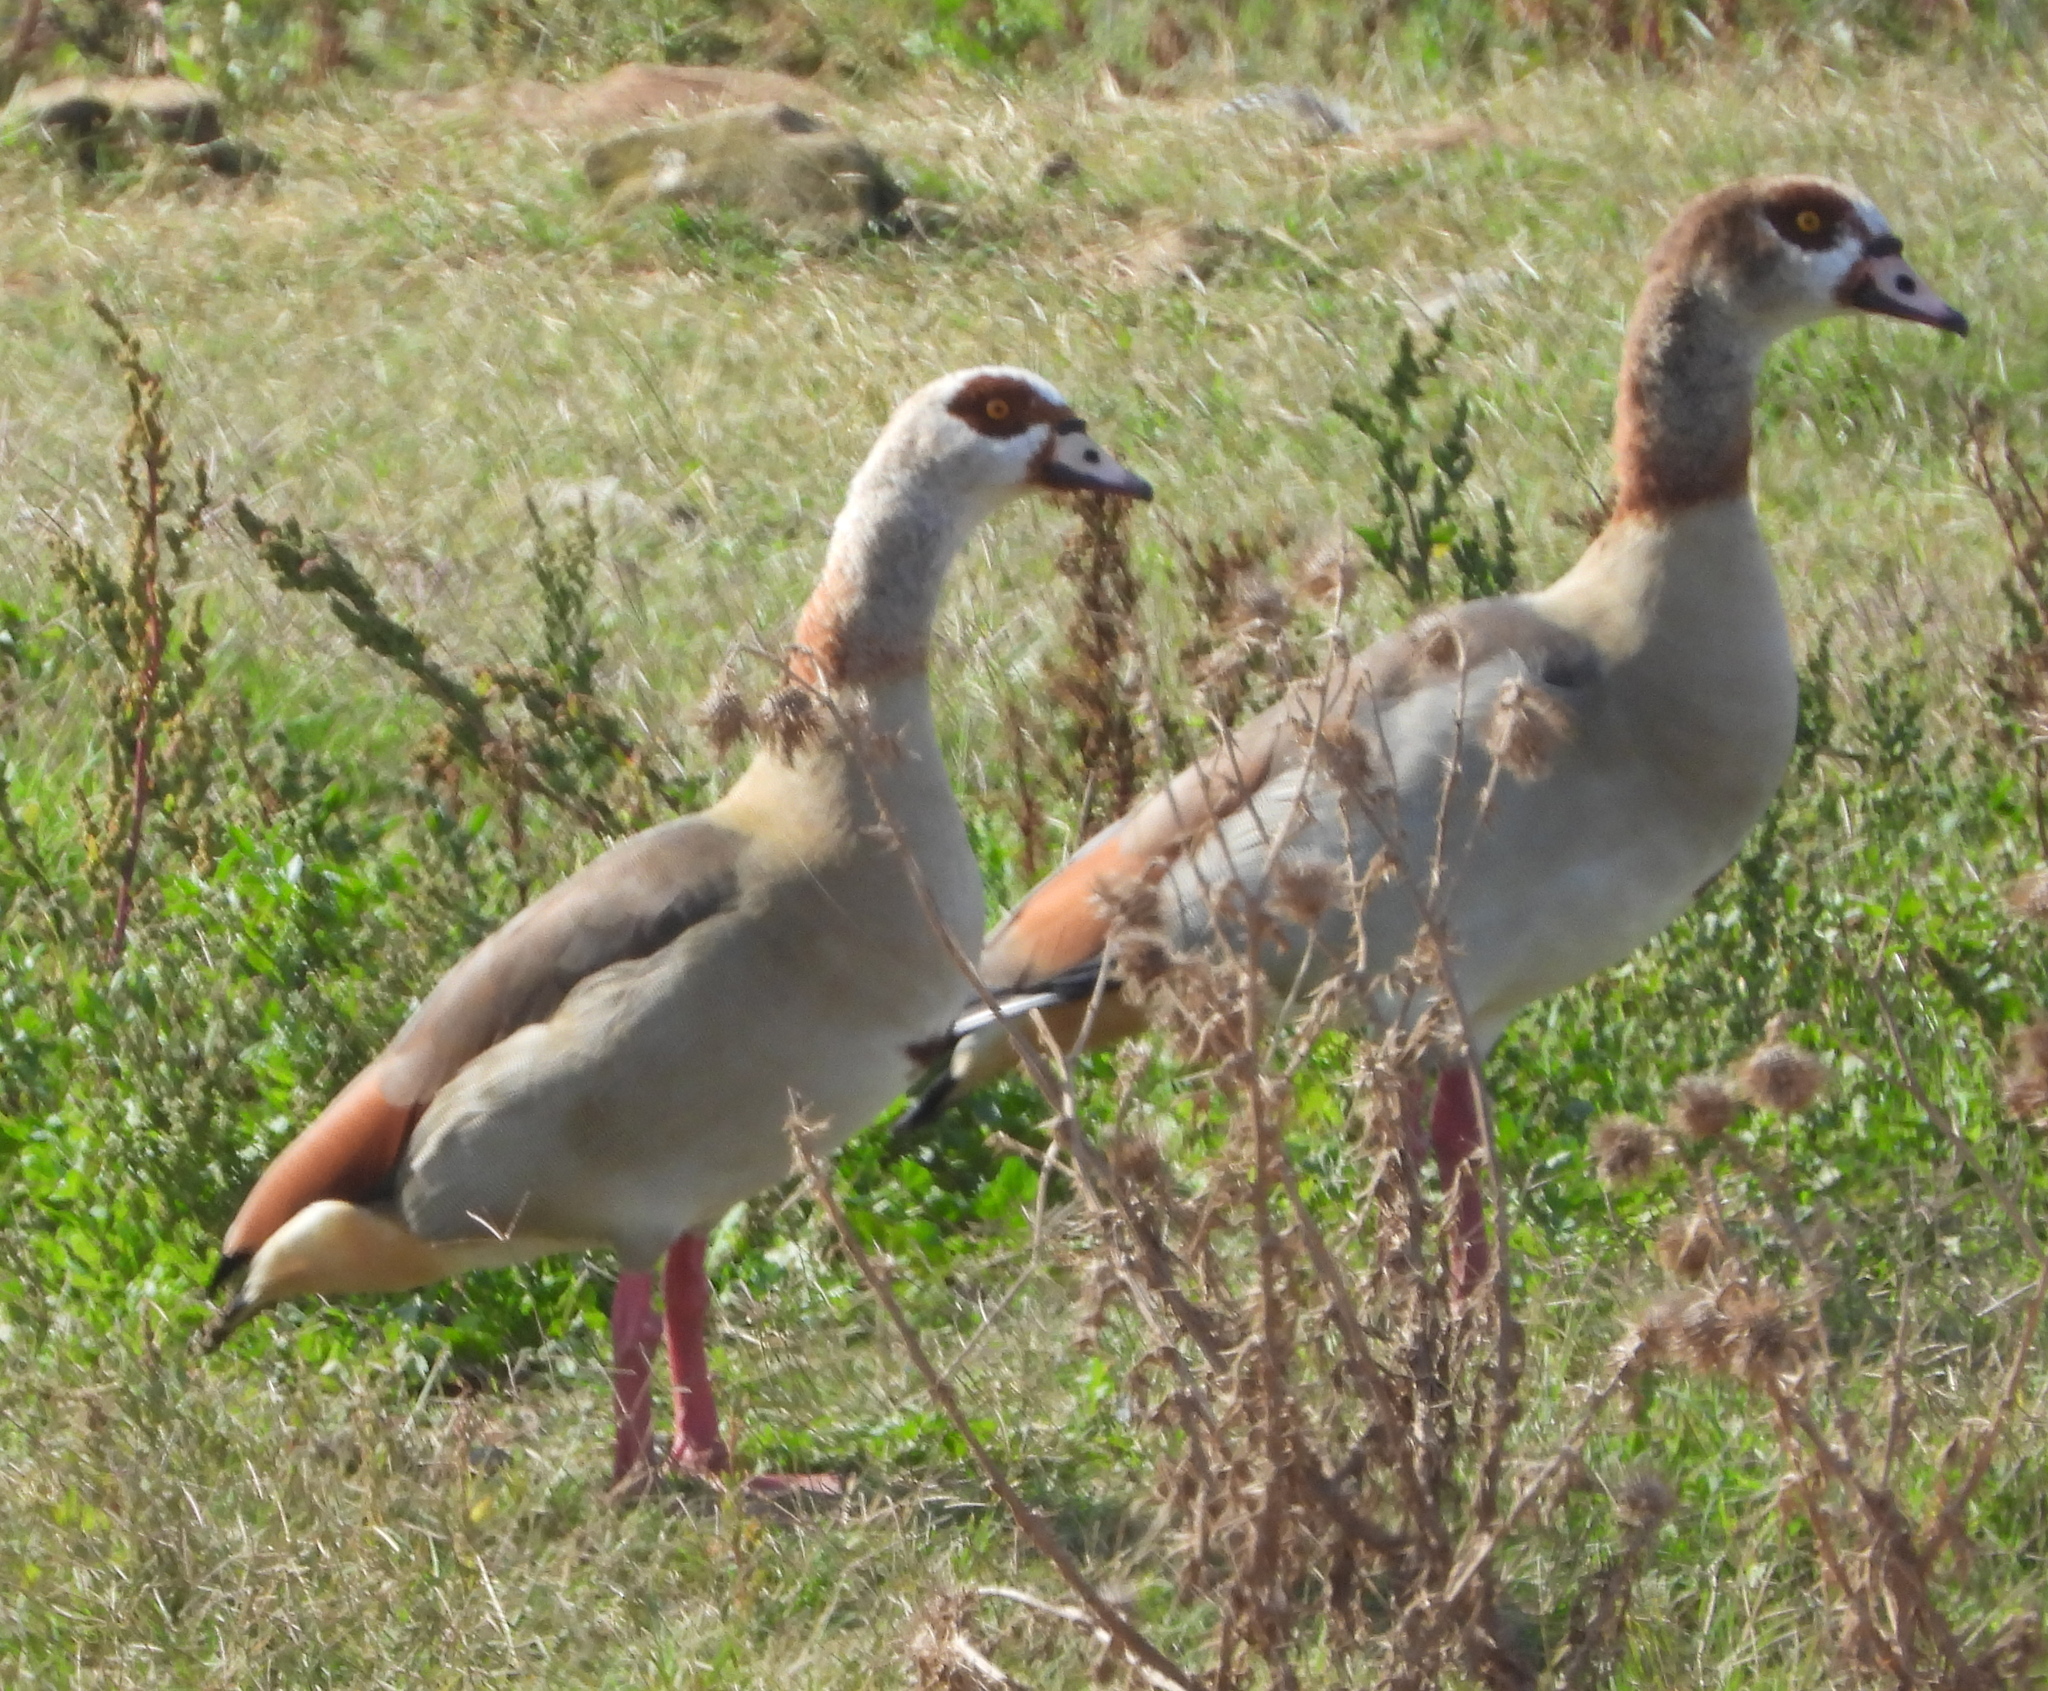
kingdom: Animalia
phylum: Chordata
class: Aves
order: Anseriformes
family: Anatidae
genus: Alopochen
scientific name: Alopochen aegyptiaca
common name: Egyptian goose
